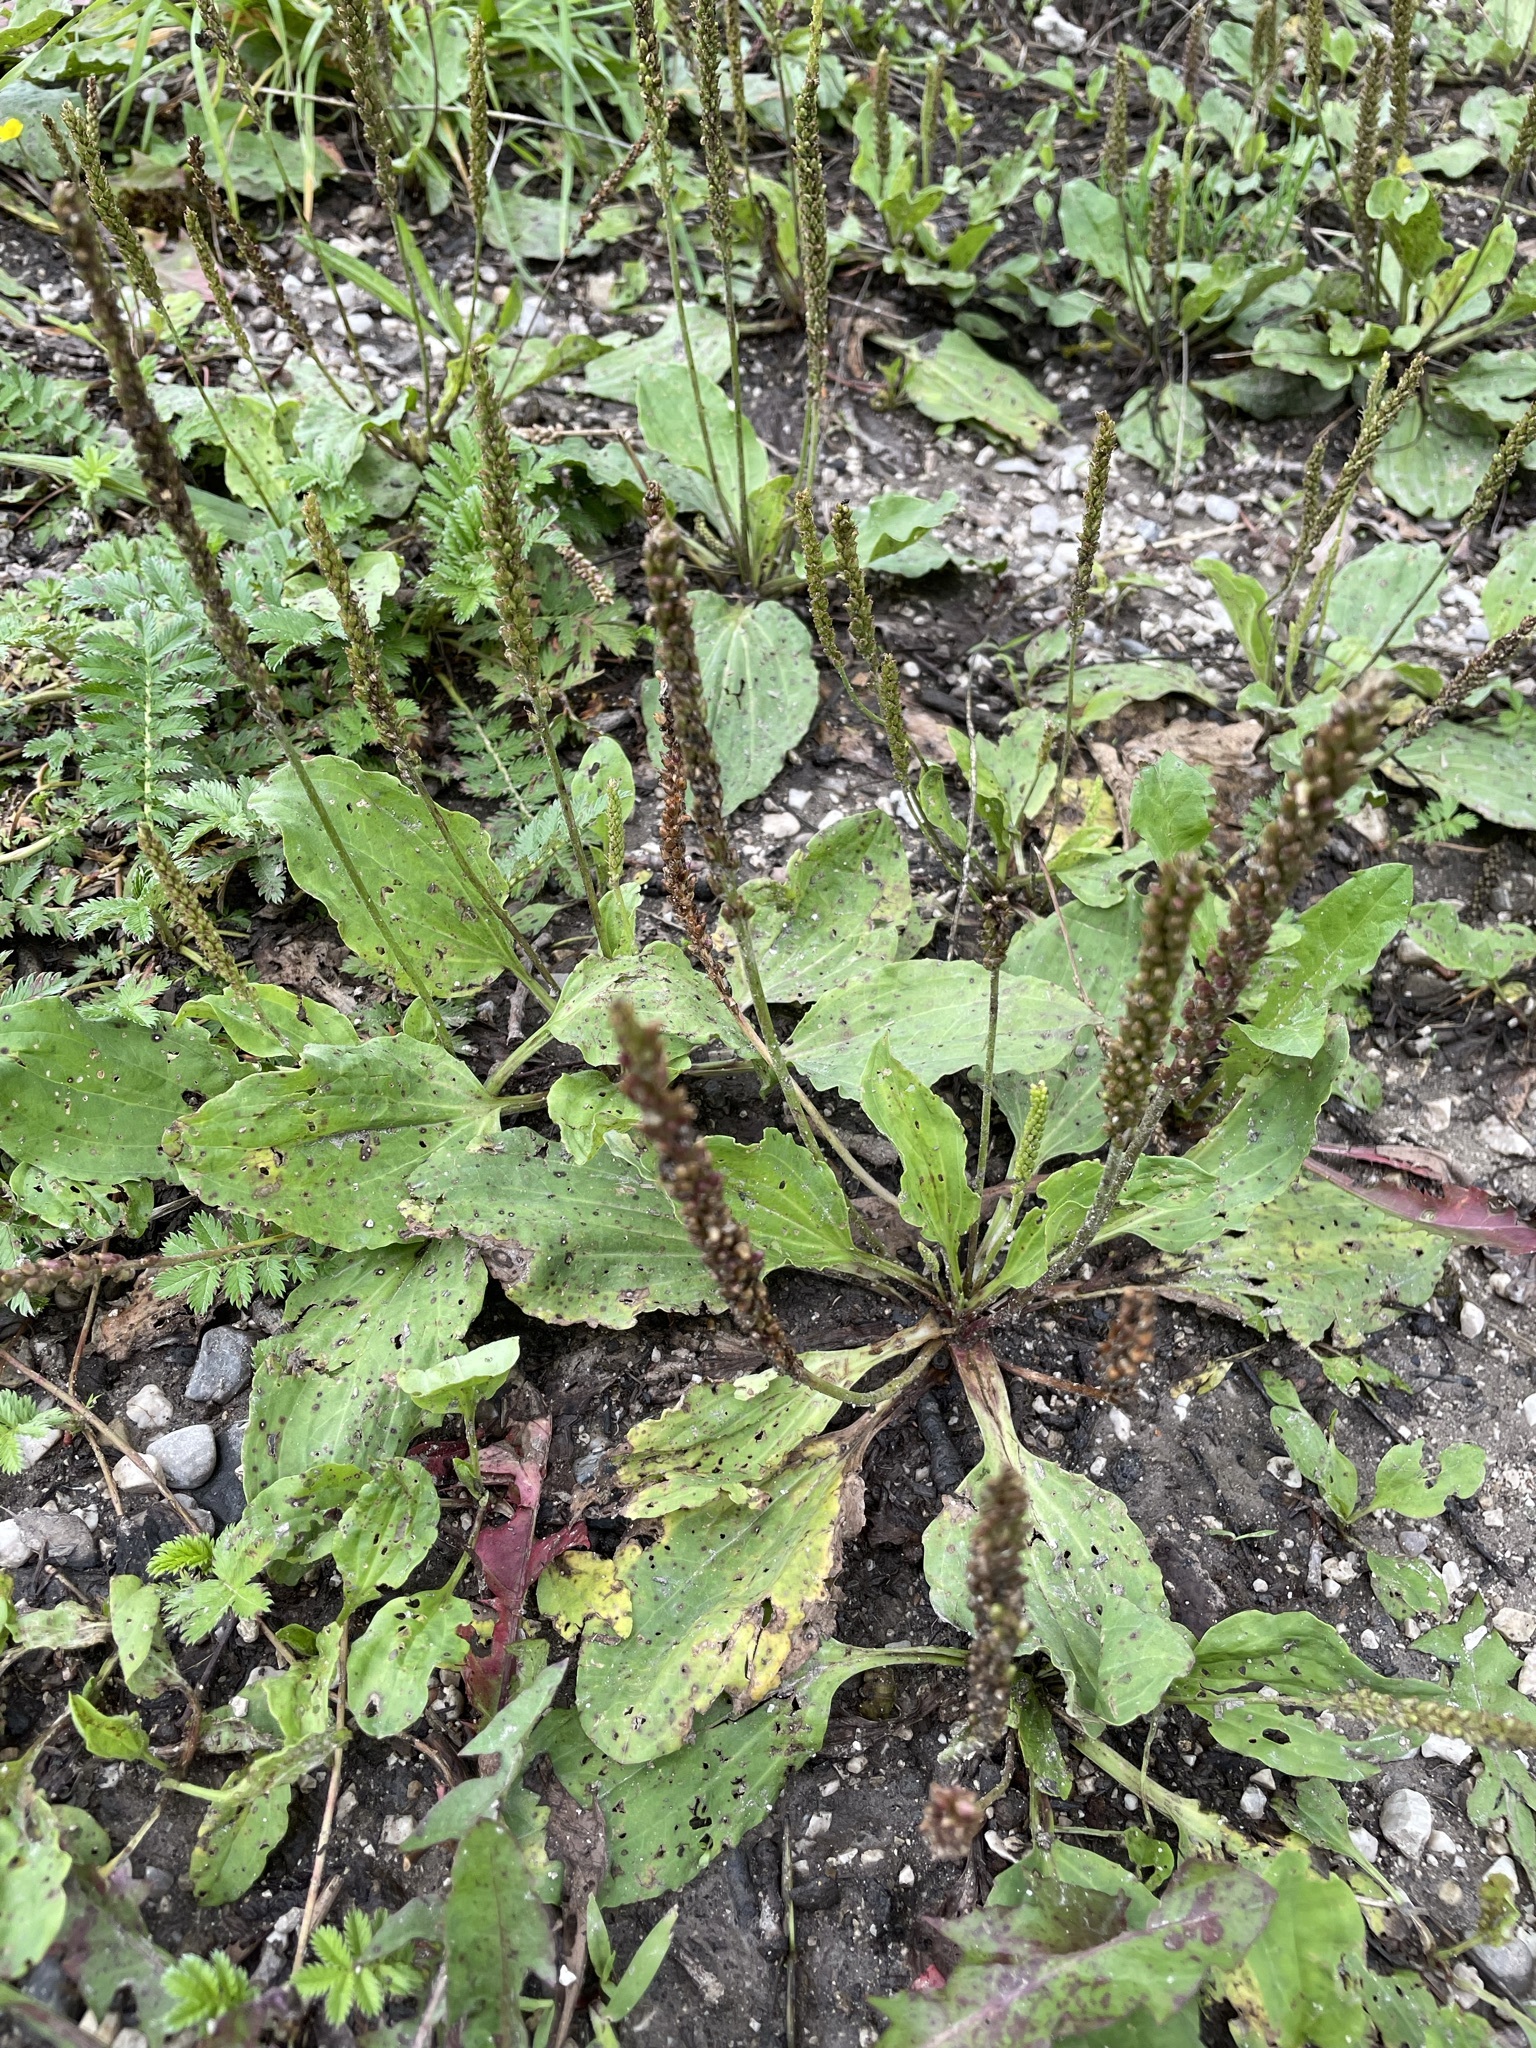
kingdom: Plantae
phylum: Tracheophyta
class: Magnoliopsida
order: Lamiales
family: Plantaginaceae
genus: Plantago
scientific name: Plantago major
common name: Common plantain
